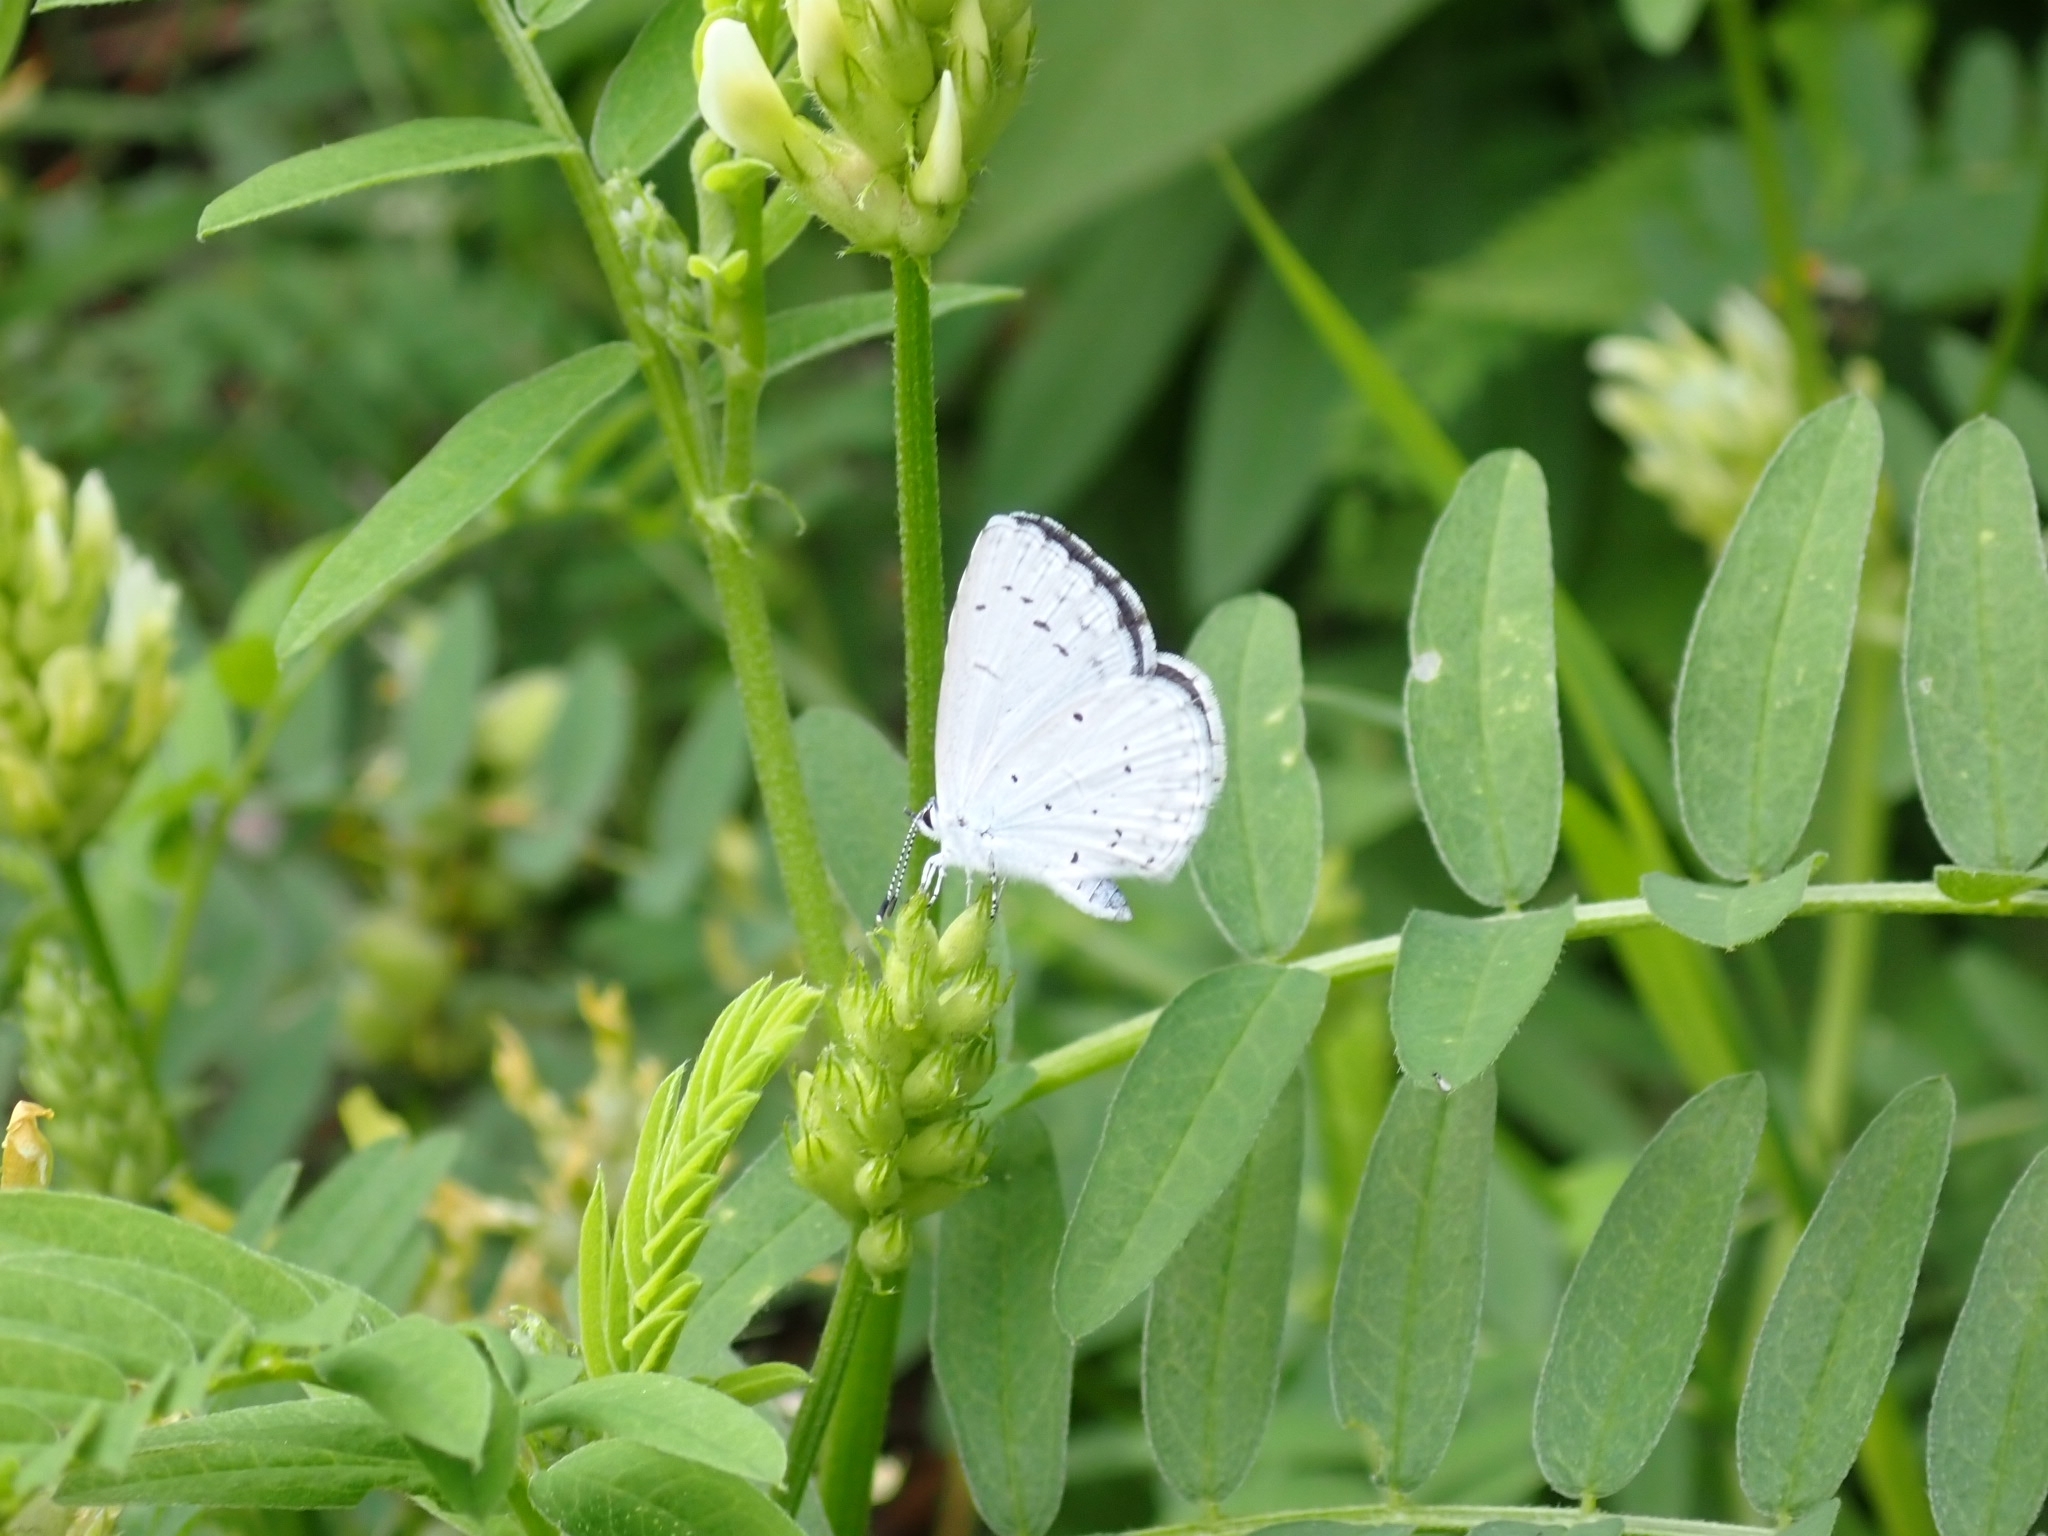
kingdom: Animalia
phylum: Arthropoda
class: Insecta
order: Lepidoptera
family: Lycaenidae
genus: Celastrina
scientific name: Celastrina argiolus
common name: Holly blue
